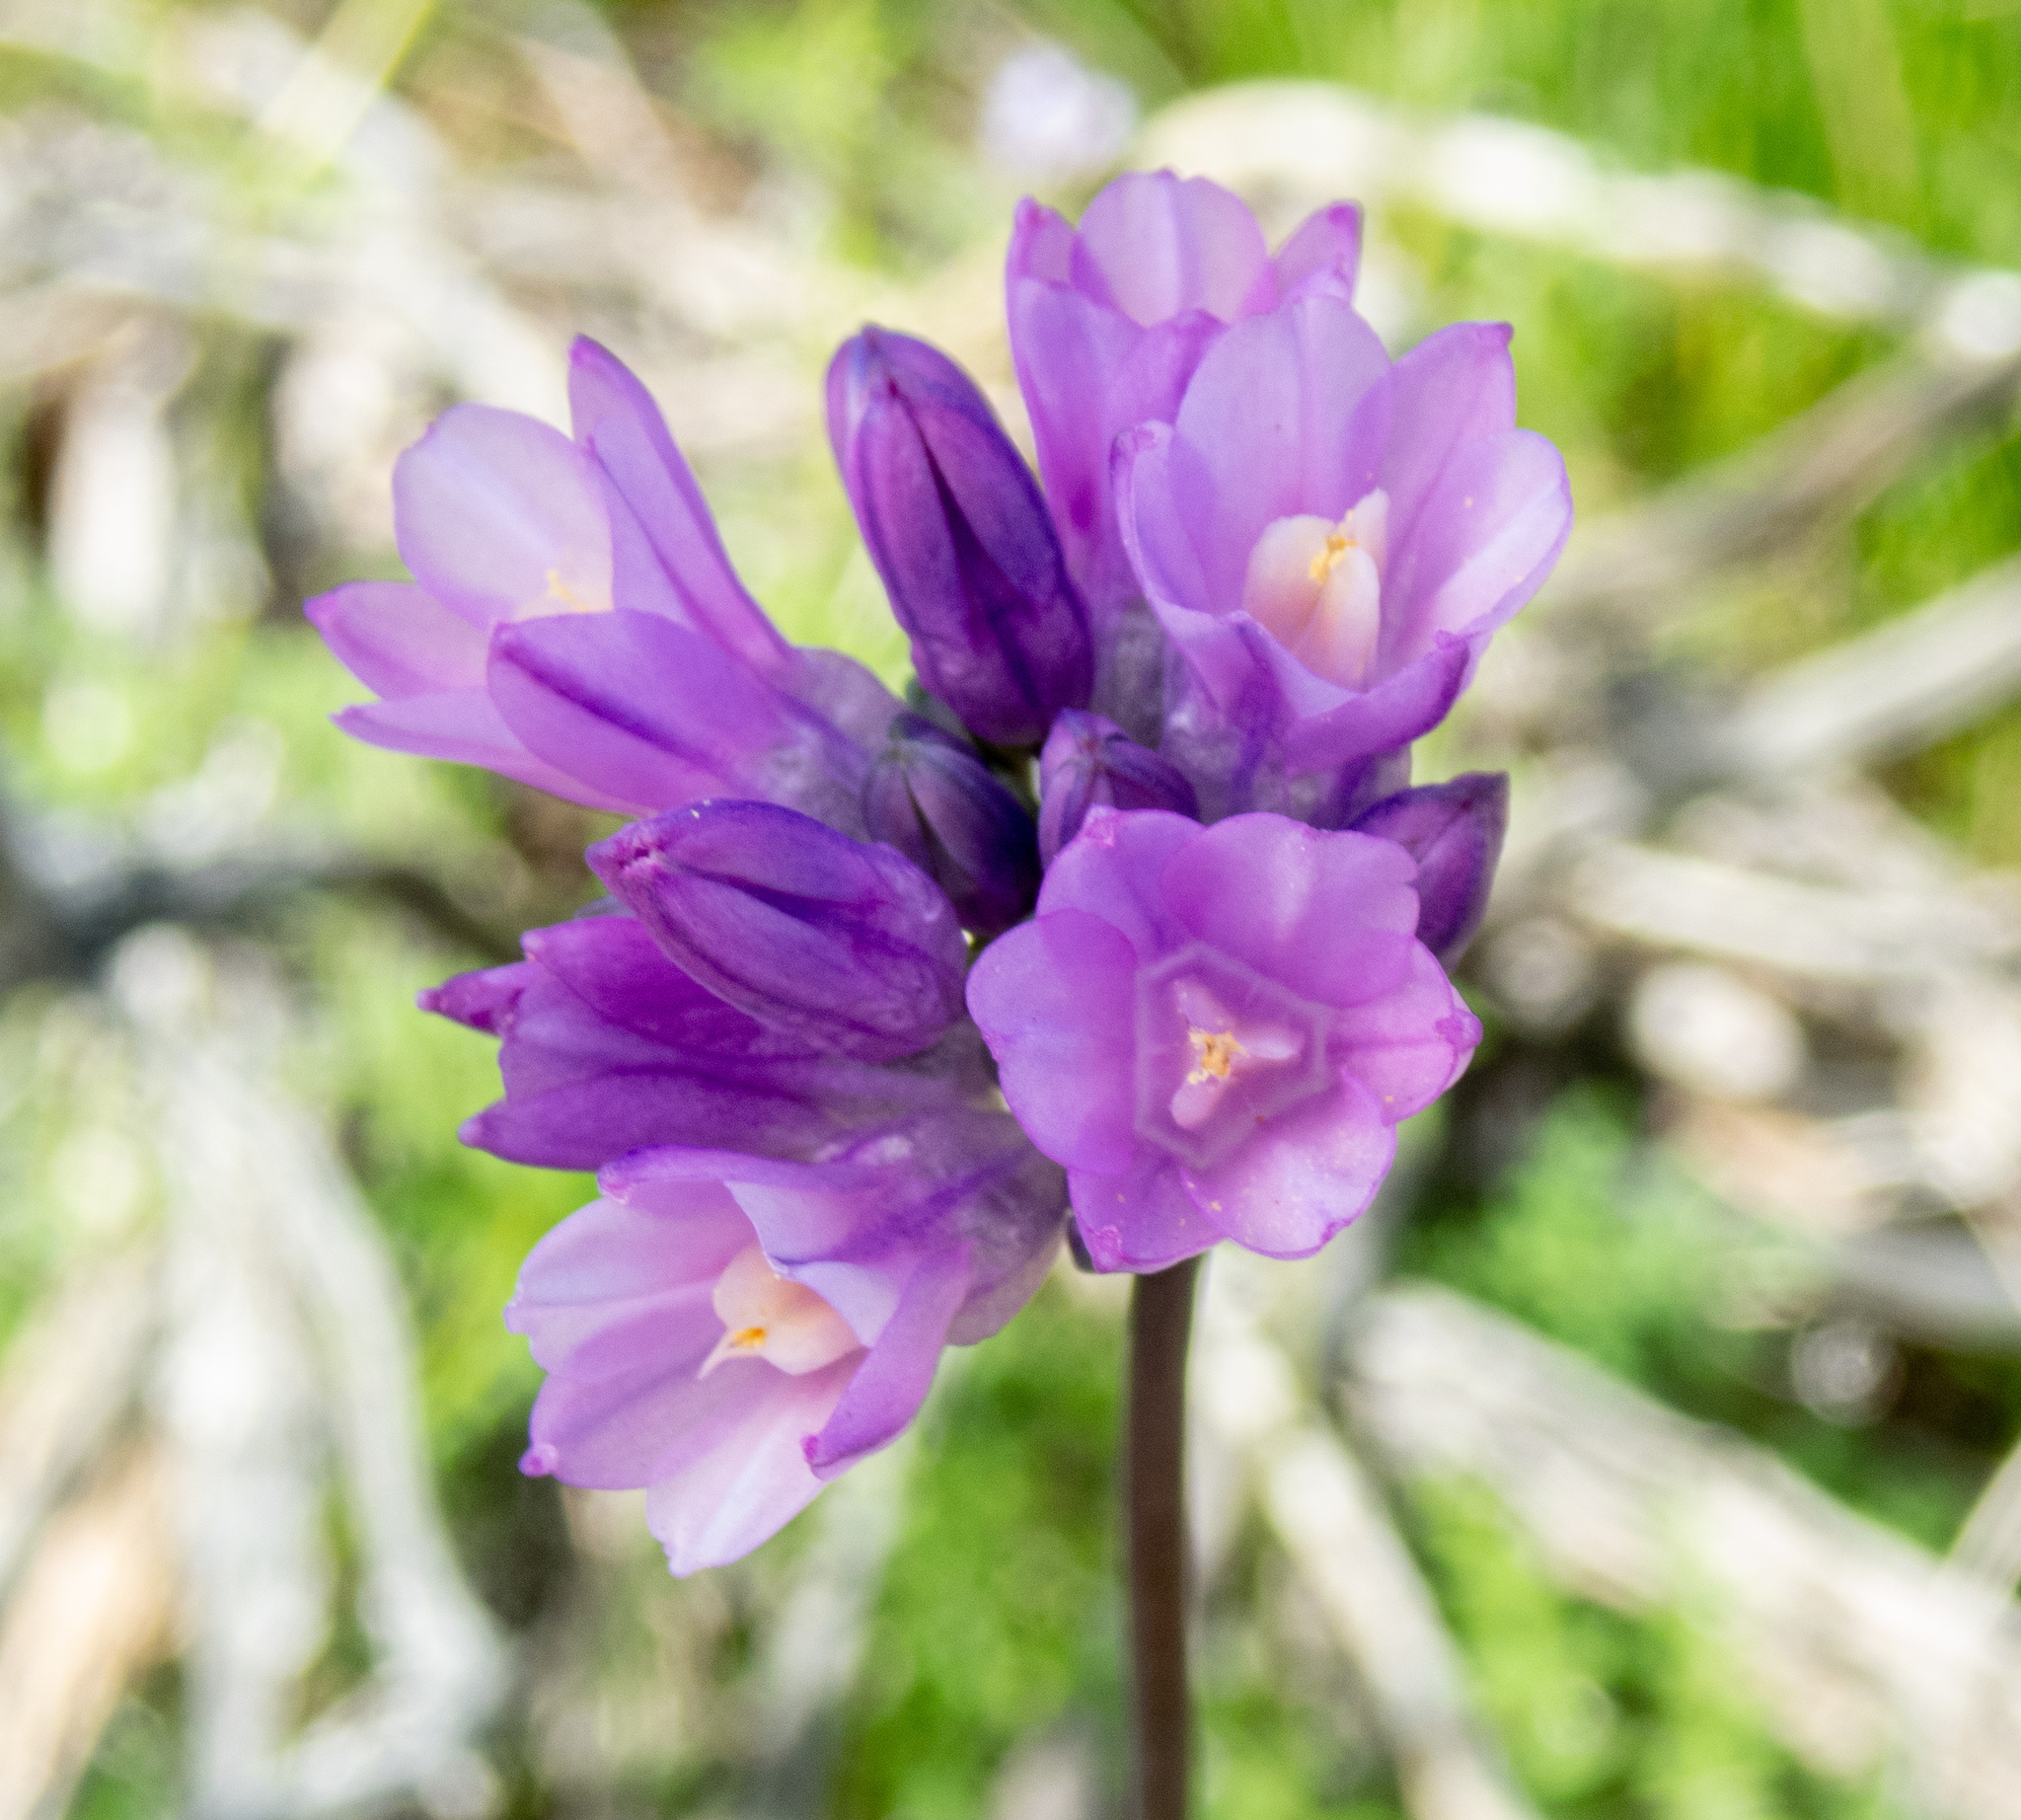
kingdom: Plantae
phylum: Tracheophyta
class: Liliopsida
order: Asparagales
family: Asparagaceae
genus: Dipterostemon
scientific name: Dipterostemon capitatus
